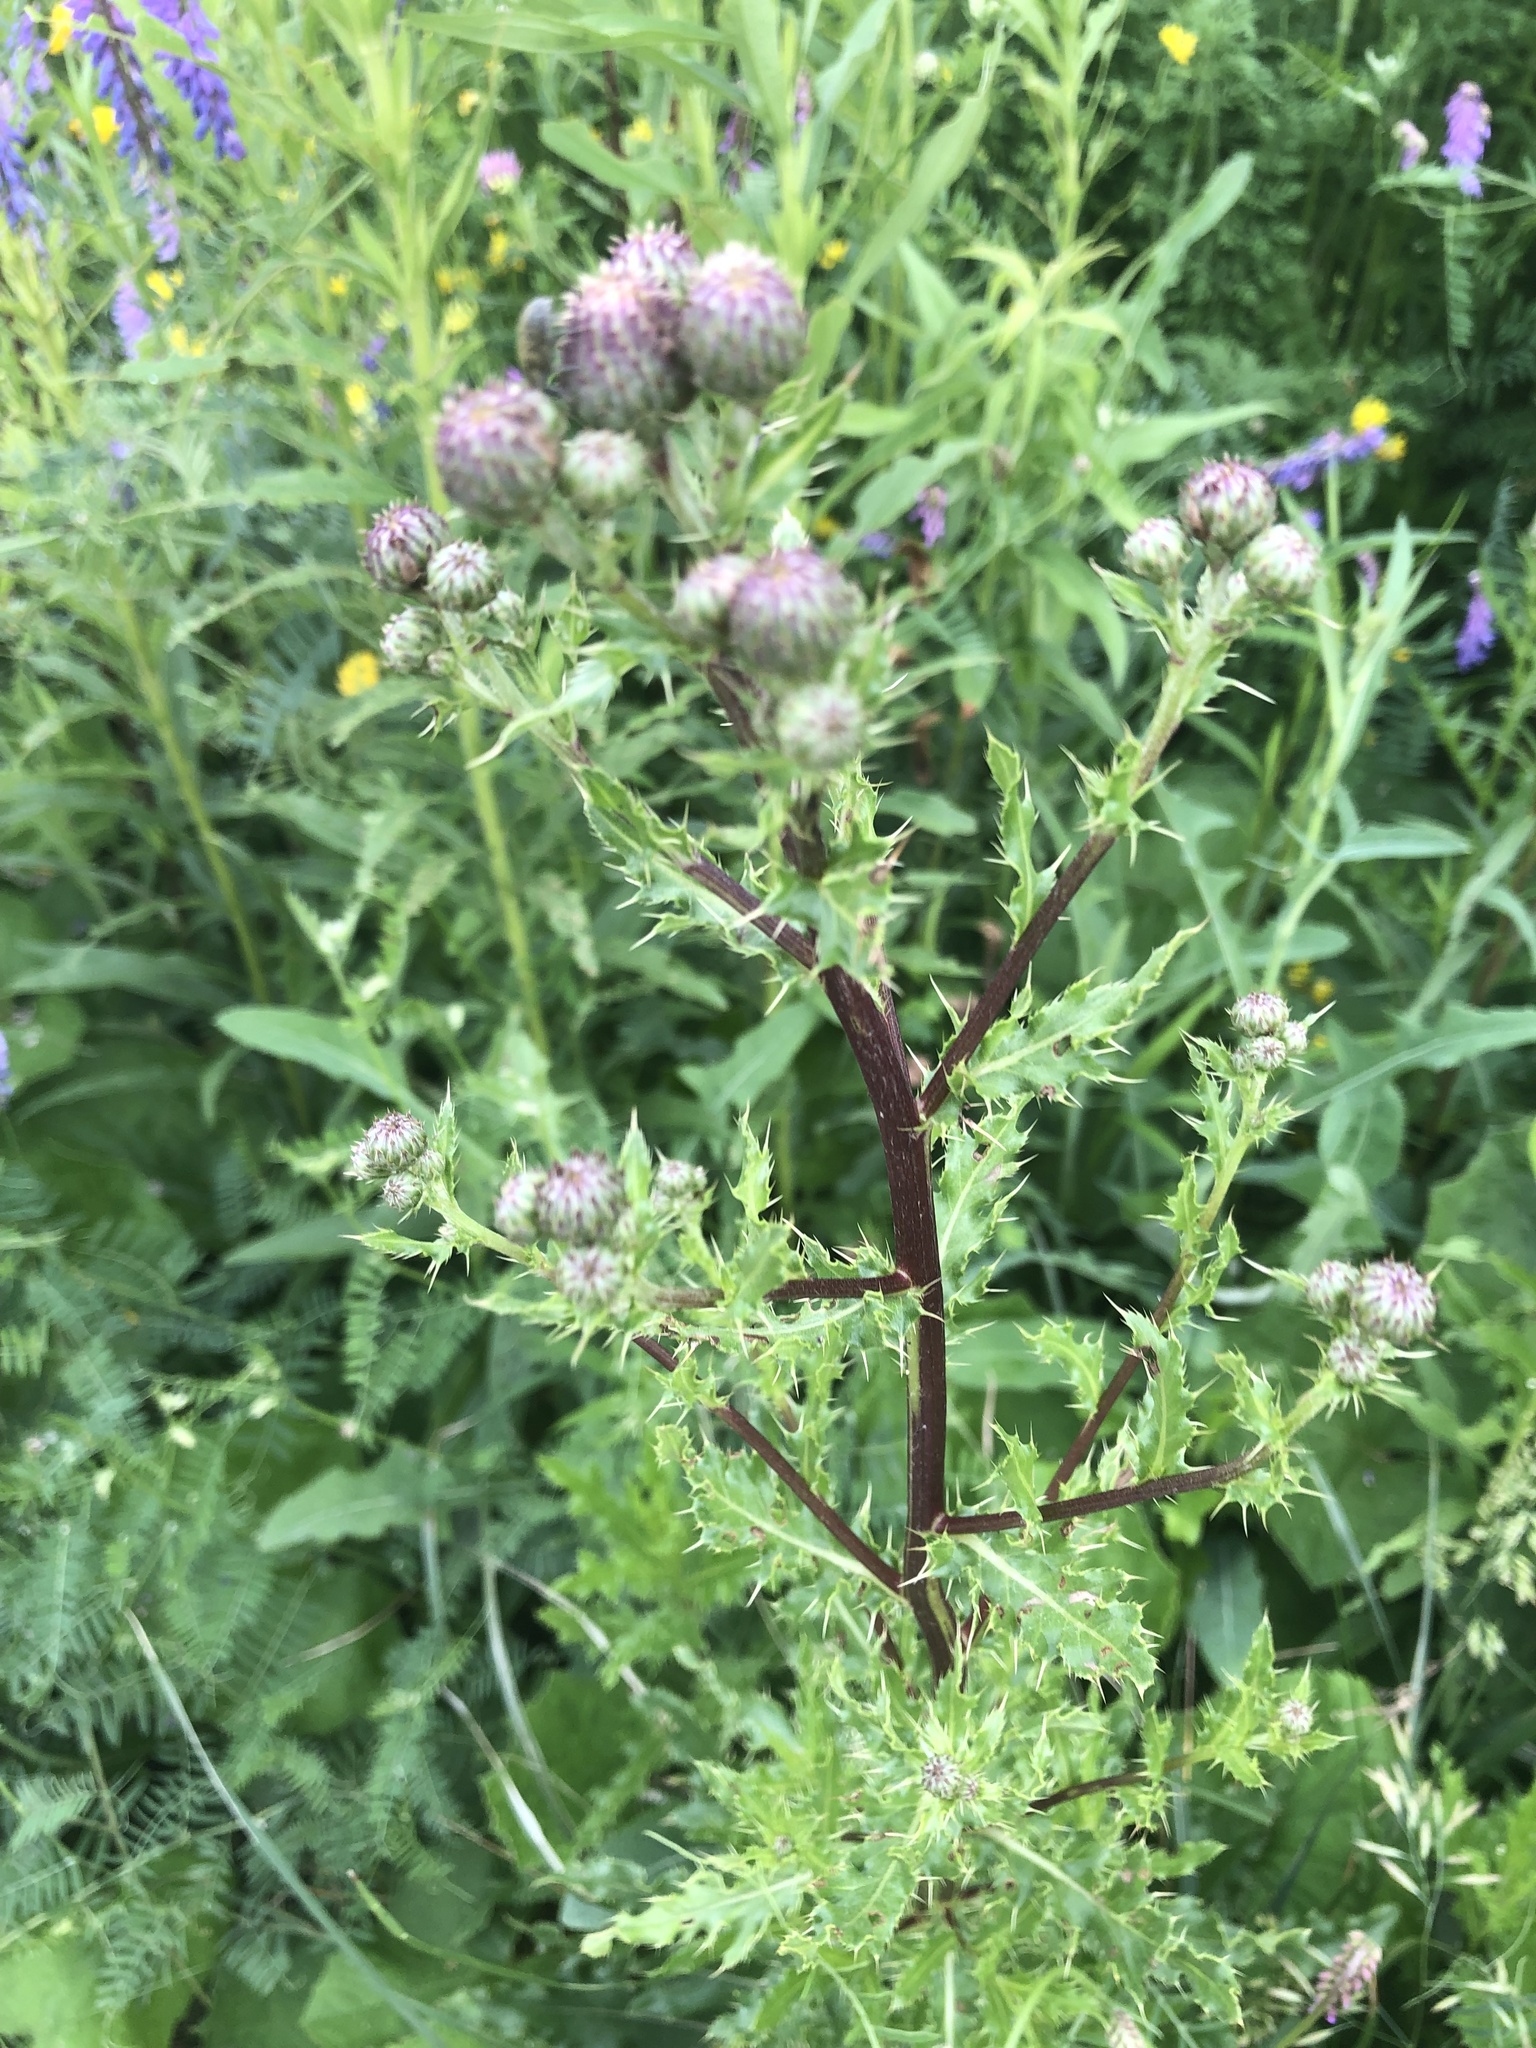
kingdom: Plantae
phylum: Tracheophyta
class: Magnoliopsida
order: Asterales
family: Asteraceae
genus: Cirsium
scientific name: Cirsium arvense
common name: Creeping thistle
